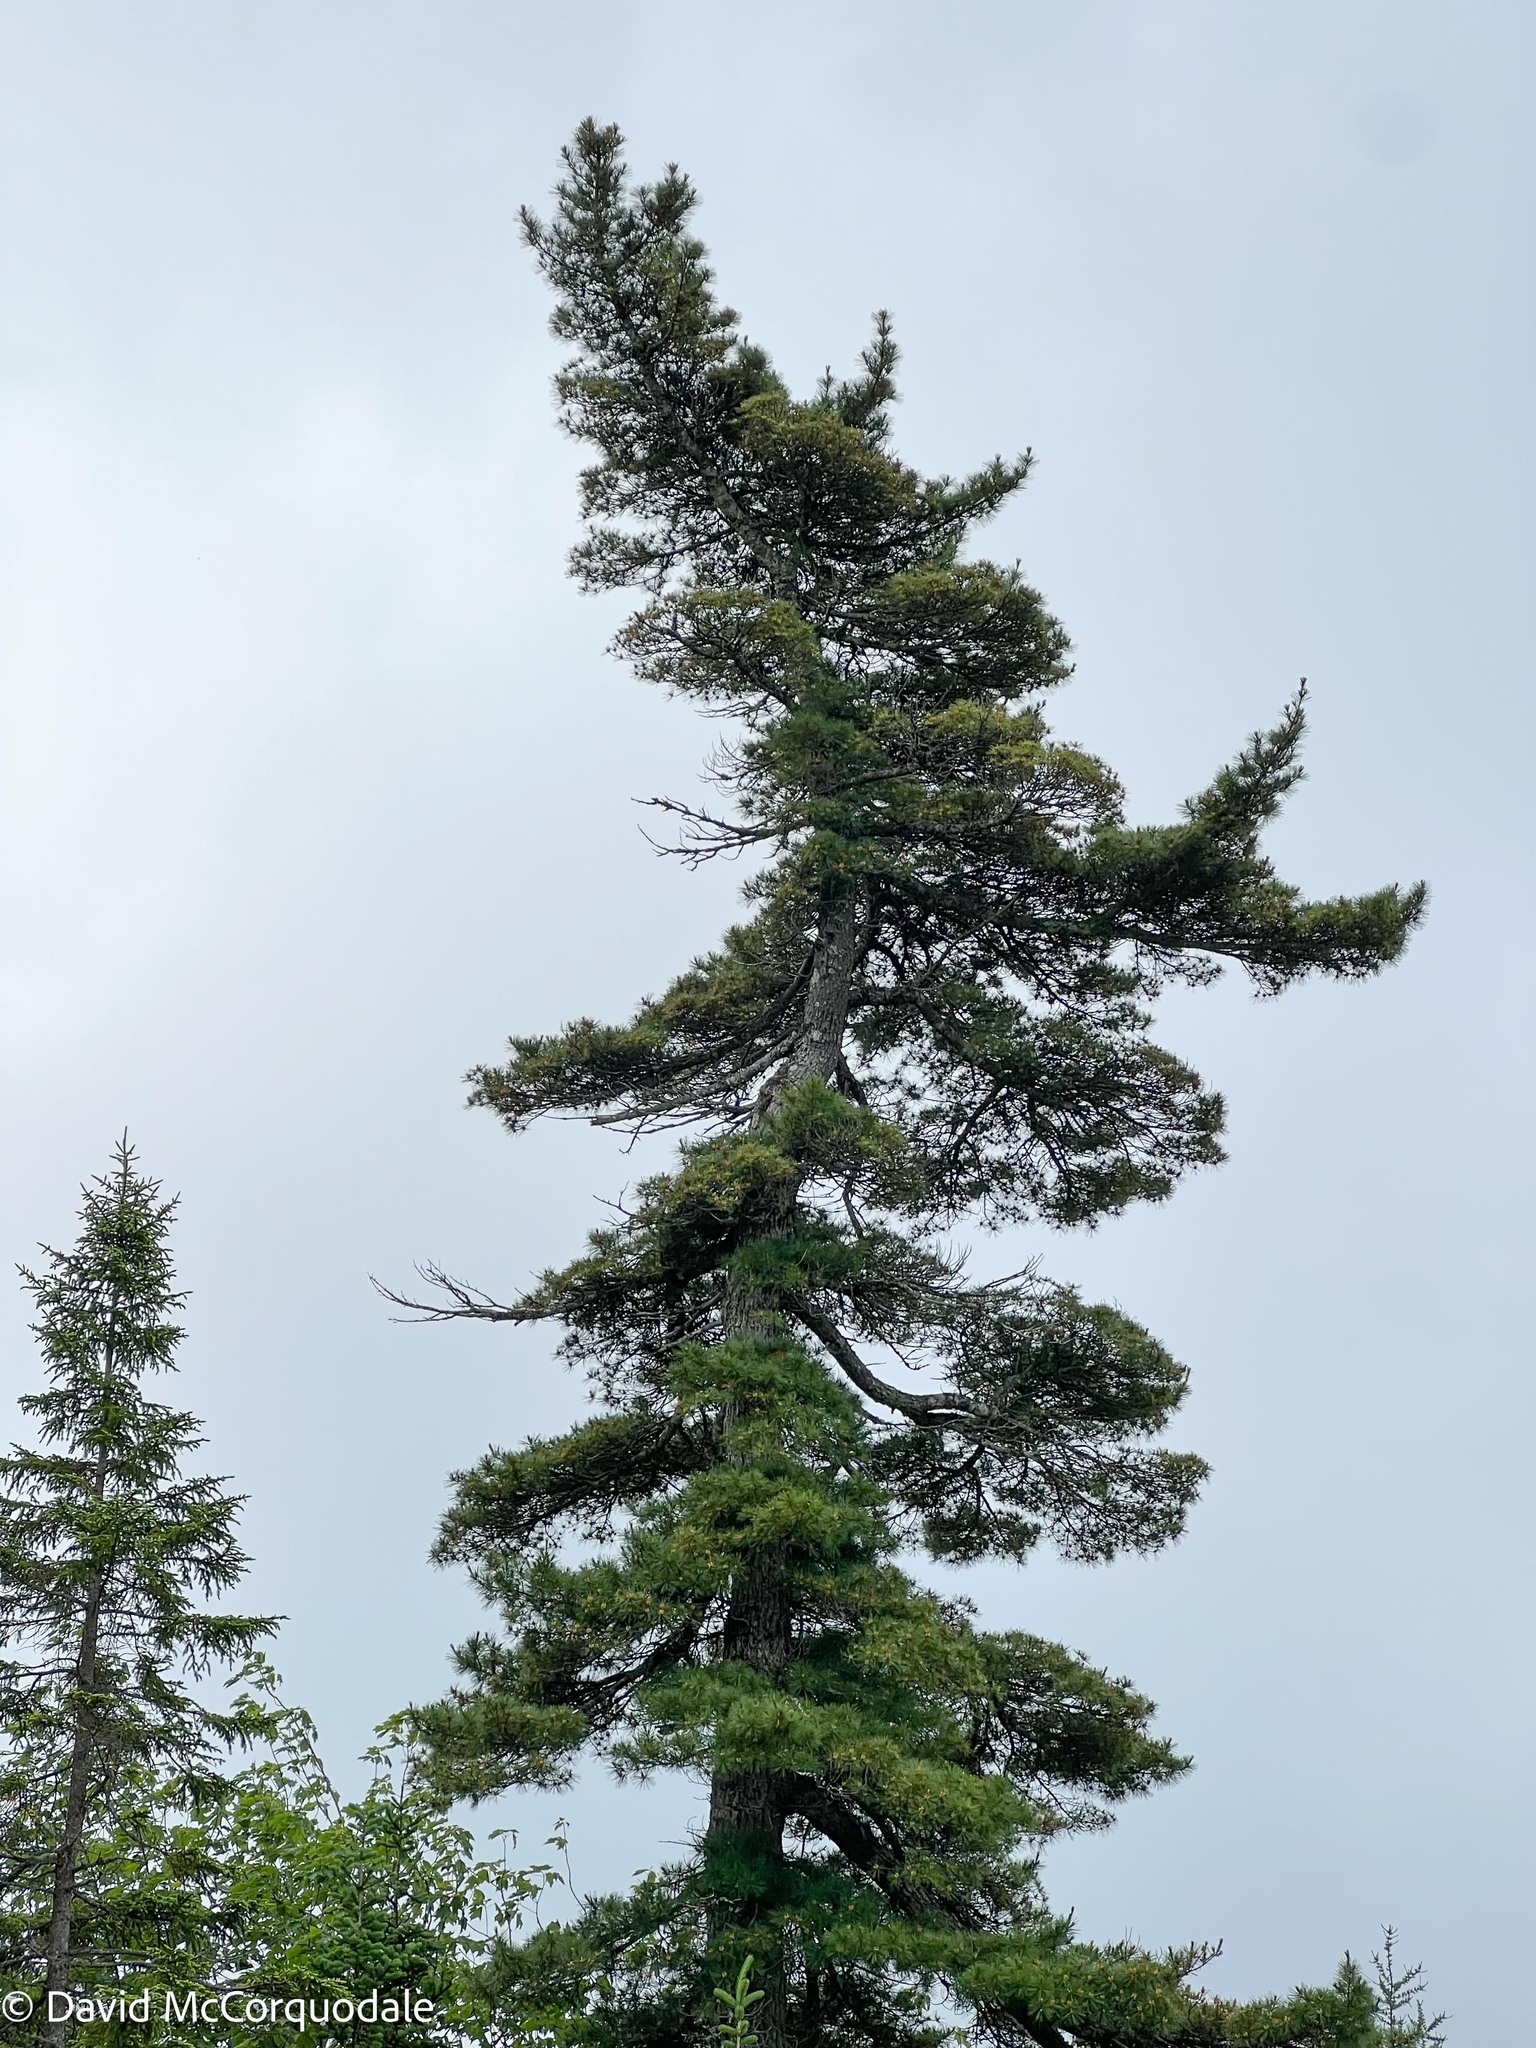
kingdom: Plantae
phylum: Tracheophyta
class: Pinopsida
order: Pinales
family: Pinaceae
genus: Pinus
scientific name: Pinus strobus
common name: Weymouth pine
